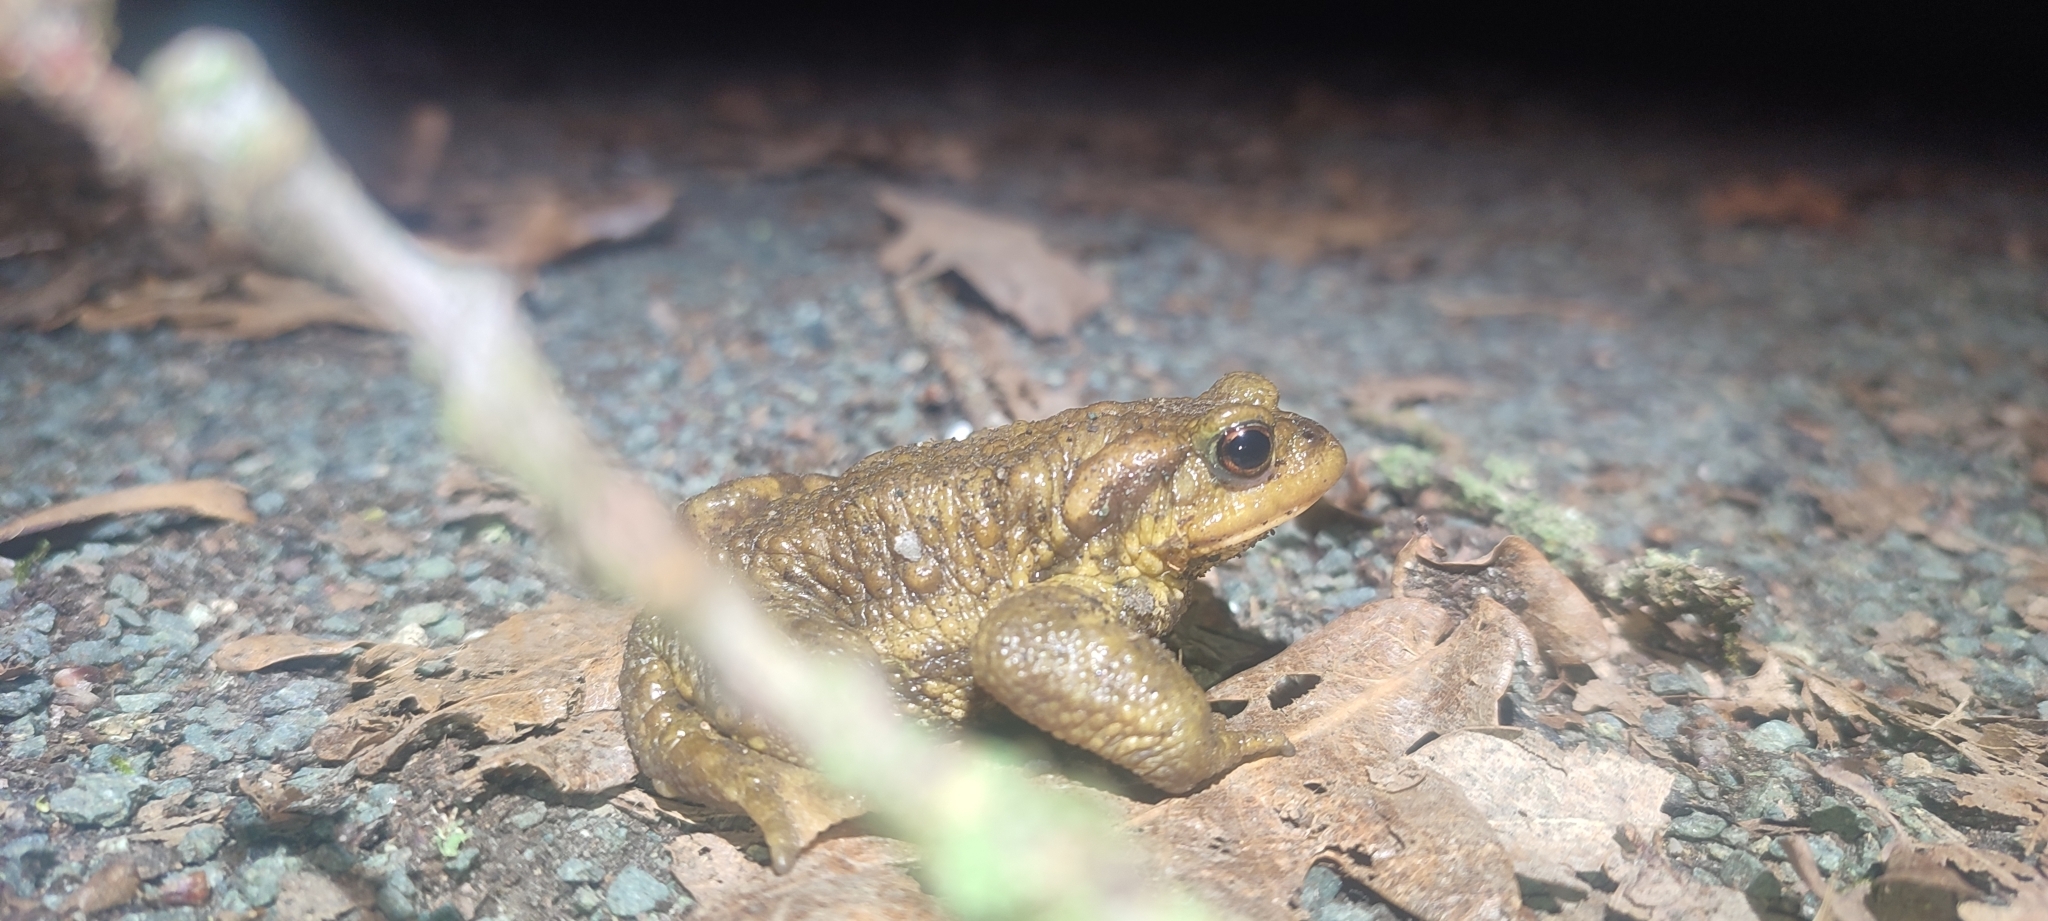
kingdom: Animalia
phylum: Chordata
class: Amphibia
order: Anura
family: Bufonidae
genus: Bufo
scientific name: Bufo spinosus
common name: Western common toad
